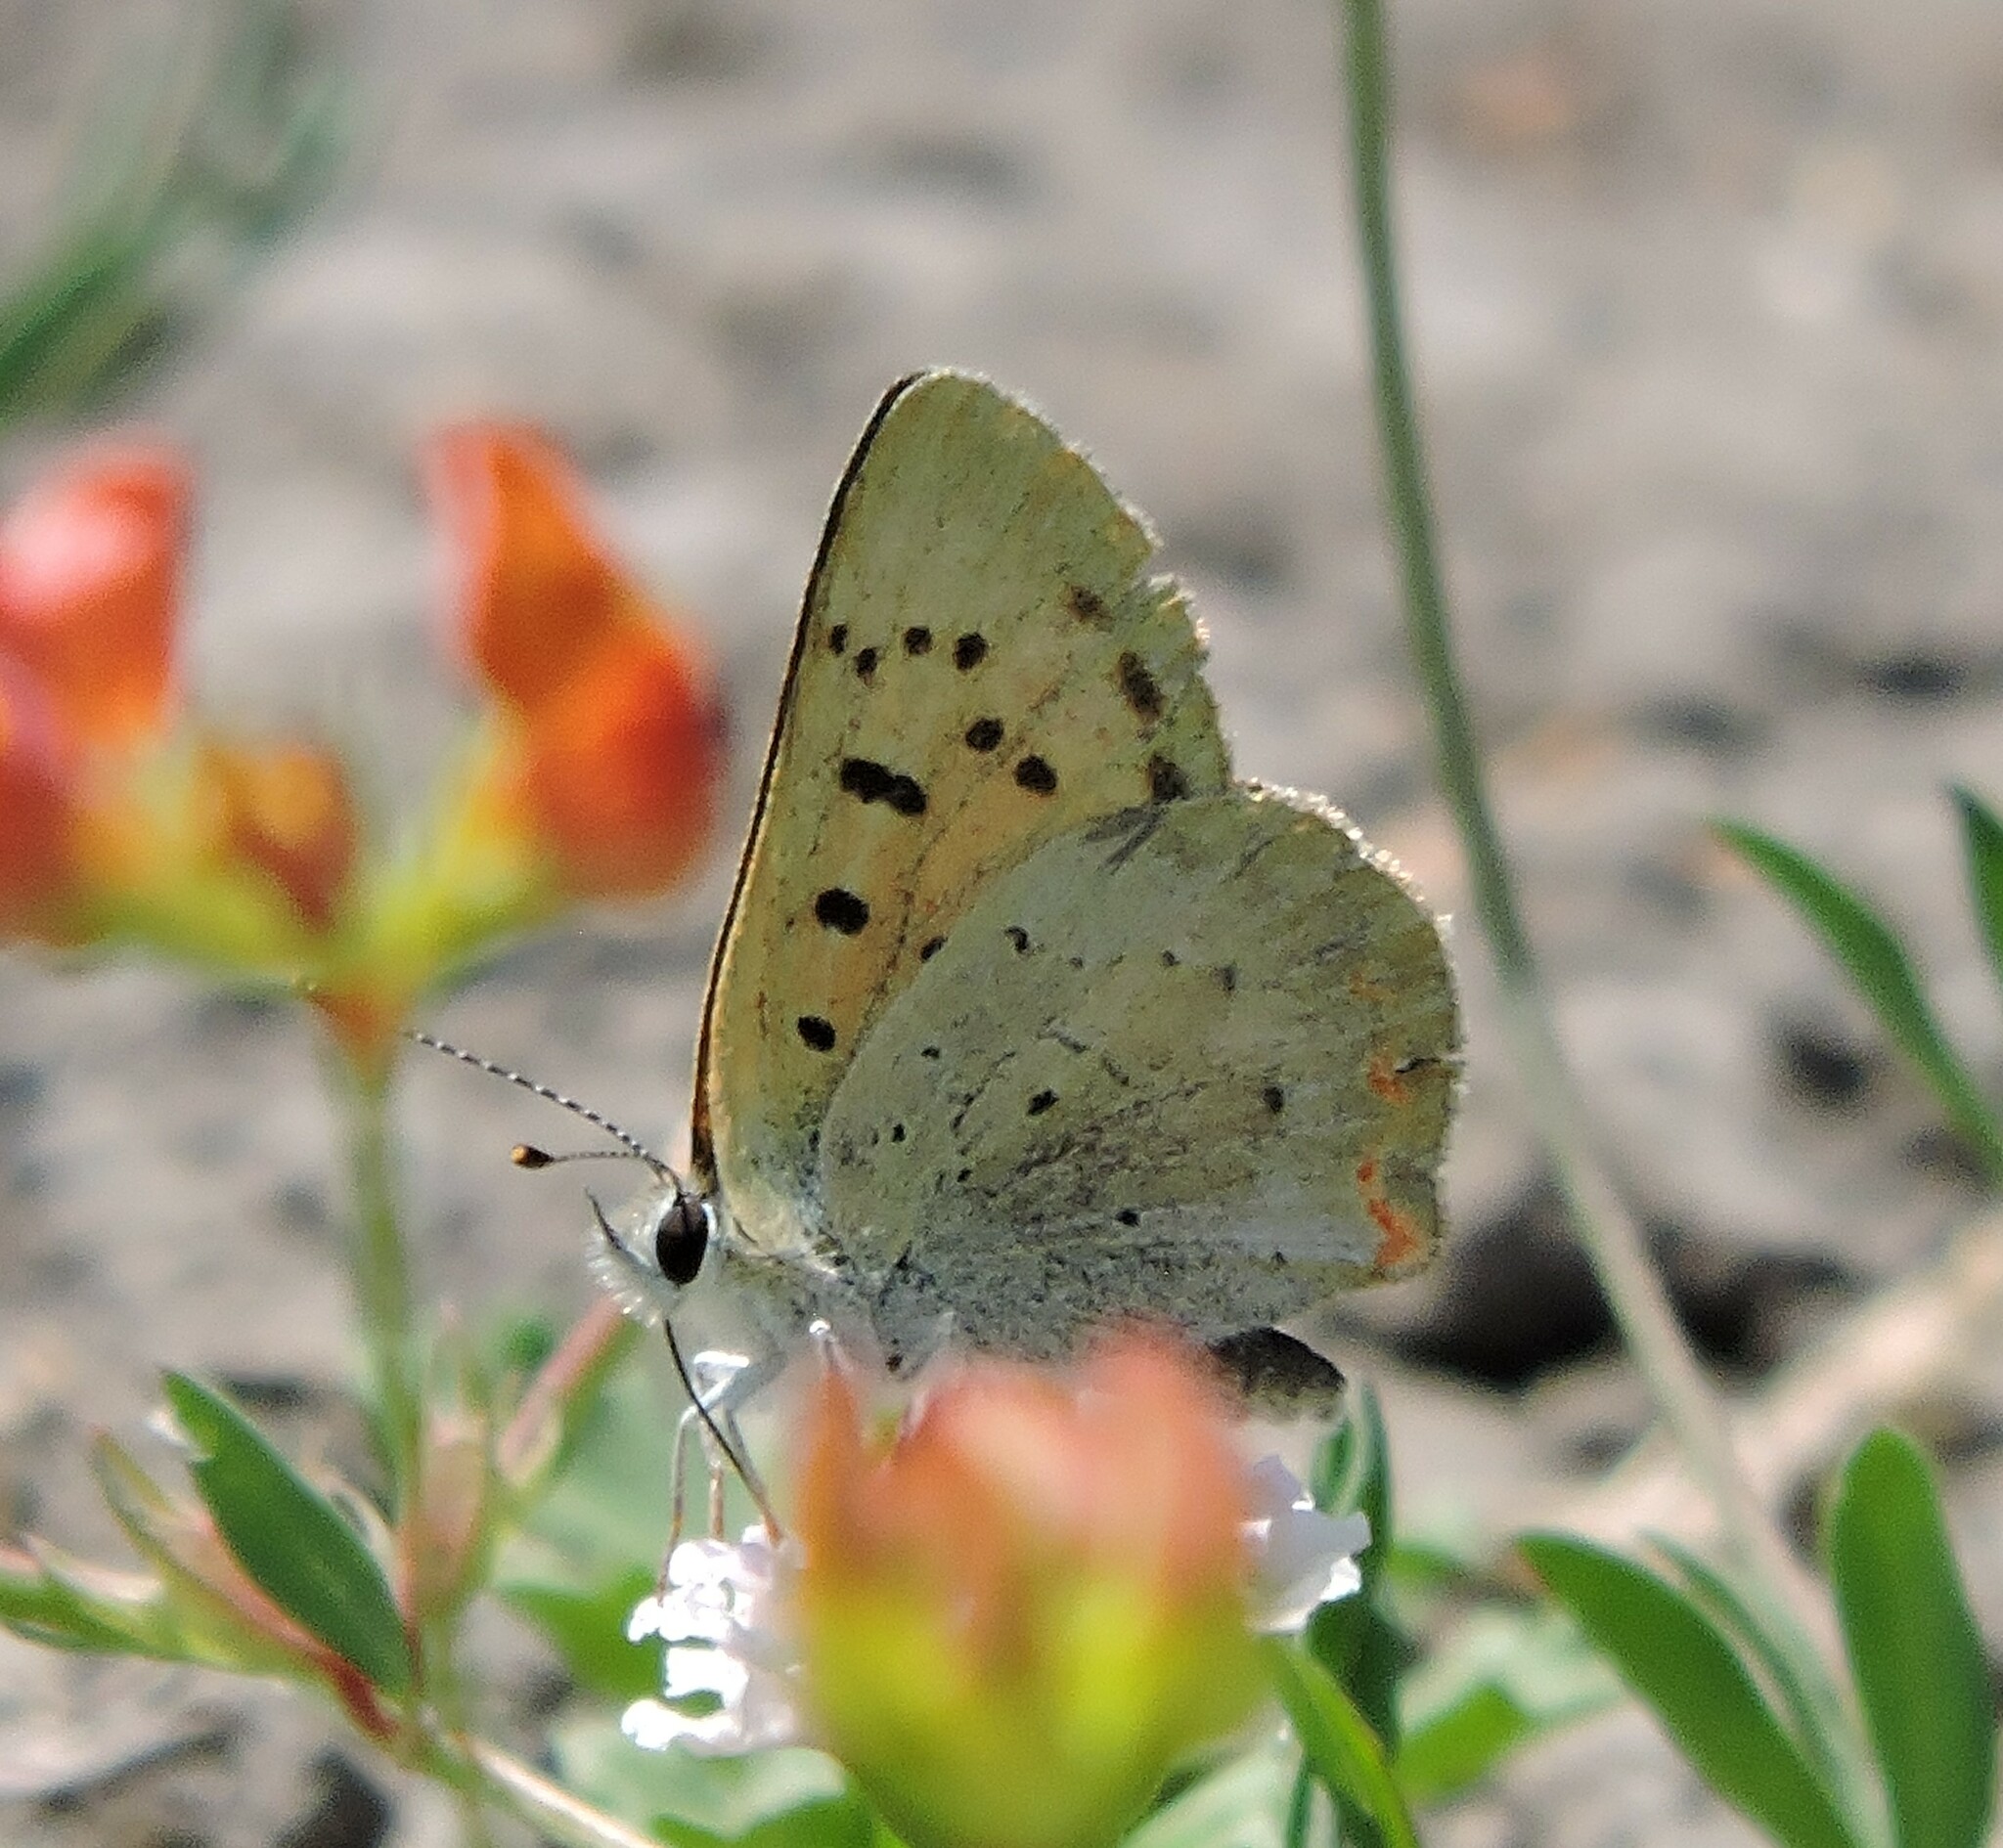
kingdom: Animalia
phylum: Arthropoda
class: Insecta
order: Lepidoptera
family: Lycaenidae
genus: Tharsalea
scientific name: Tharsalea helloides
